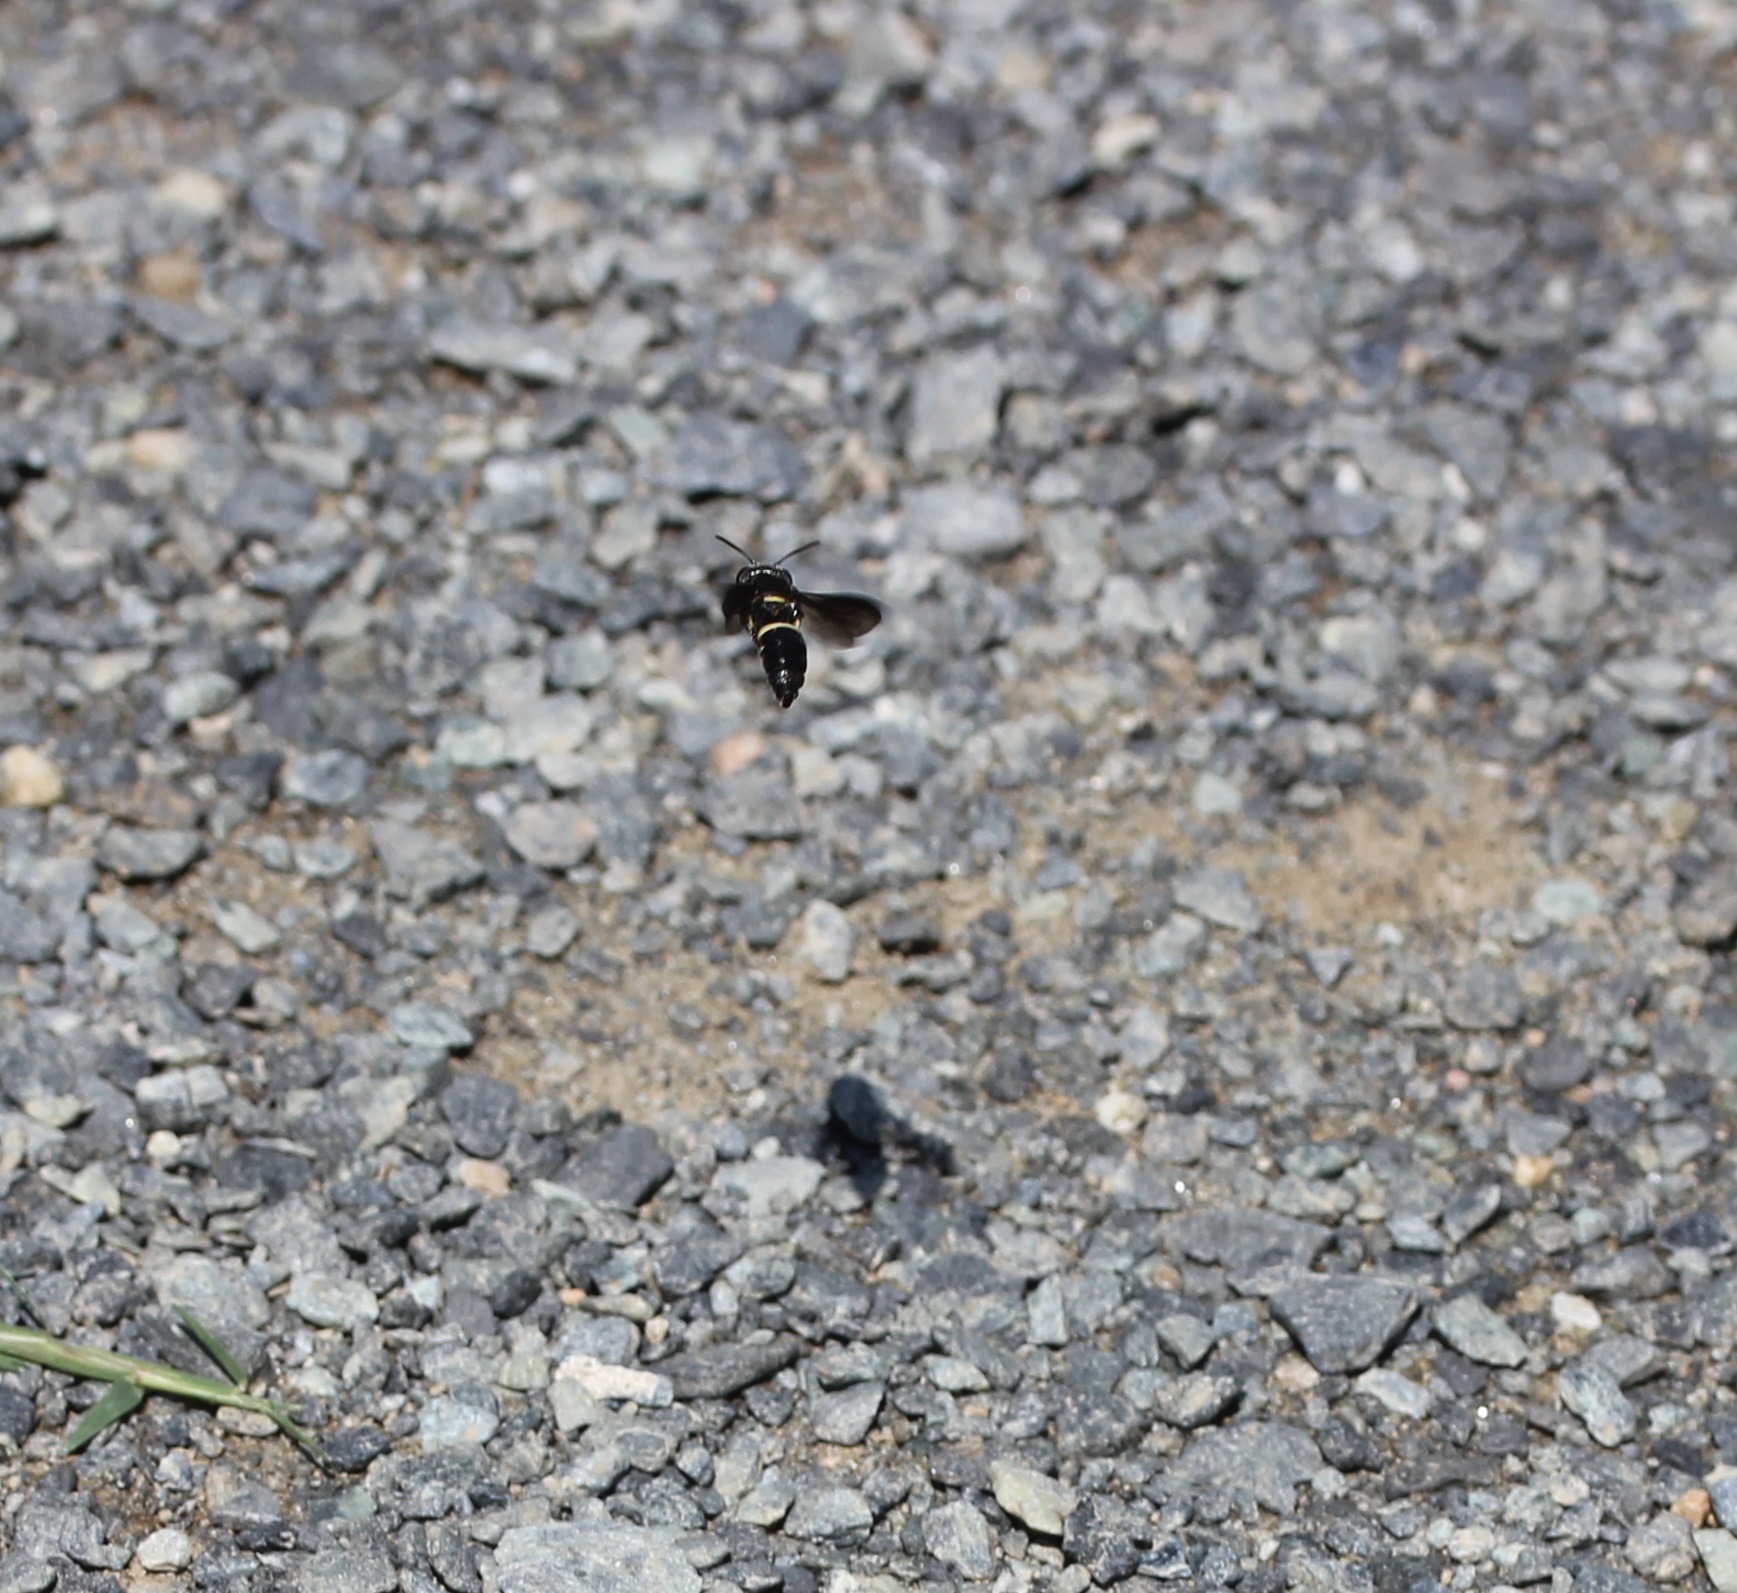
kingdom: Animalia
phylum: Arthropoda
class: Insecta
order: Hymenoptera
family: Crabronidae
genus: Cerceris
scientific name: Cerceris fumipennis
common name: Smokey-winged beetle bandit wasp
